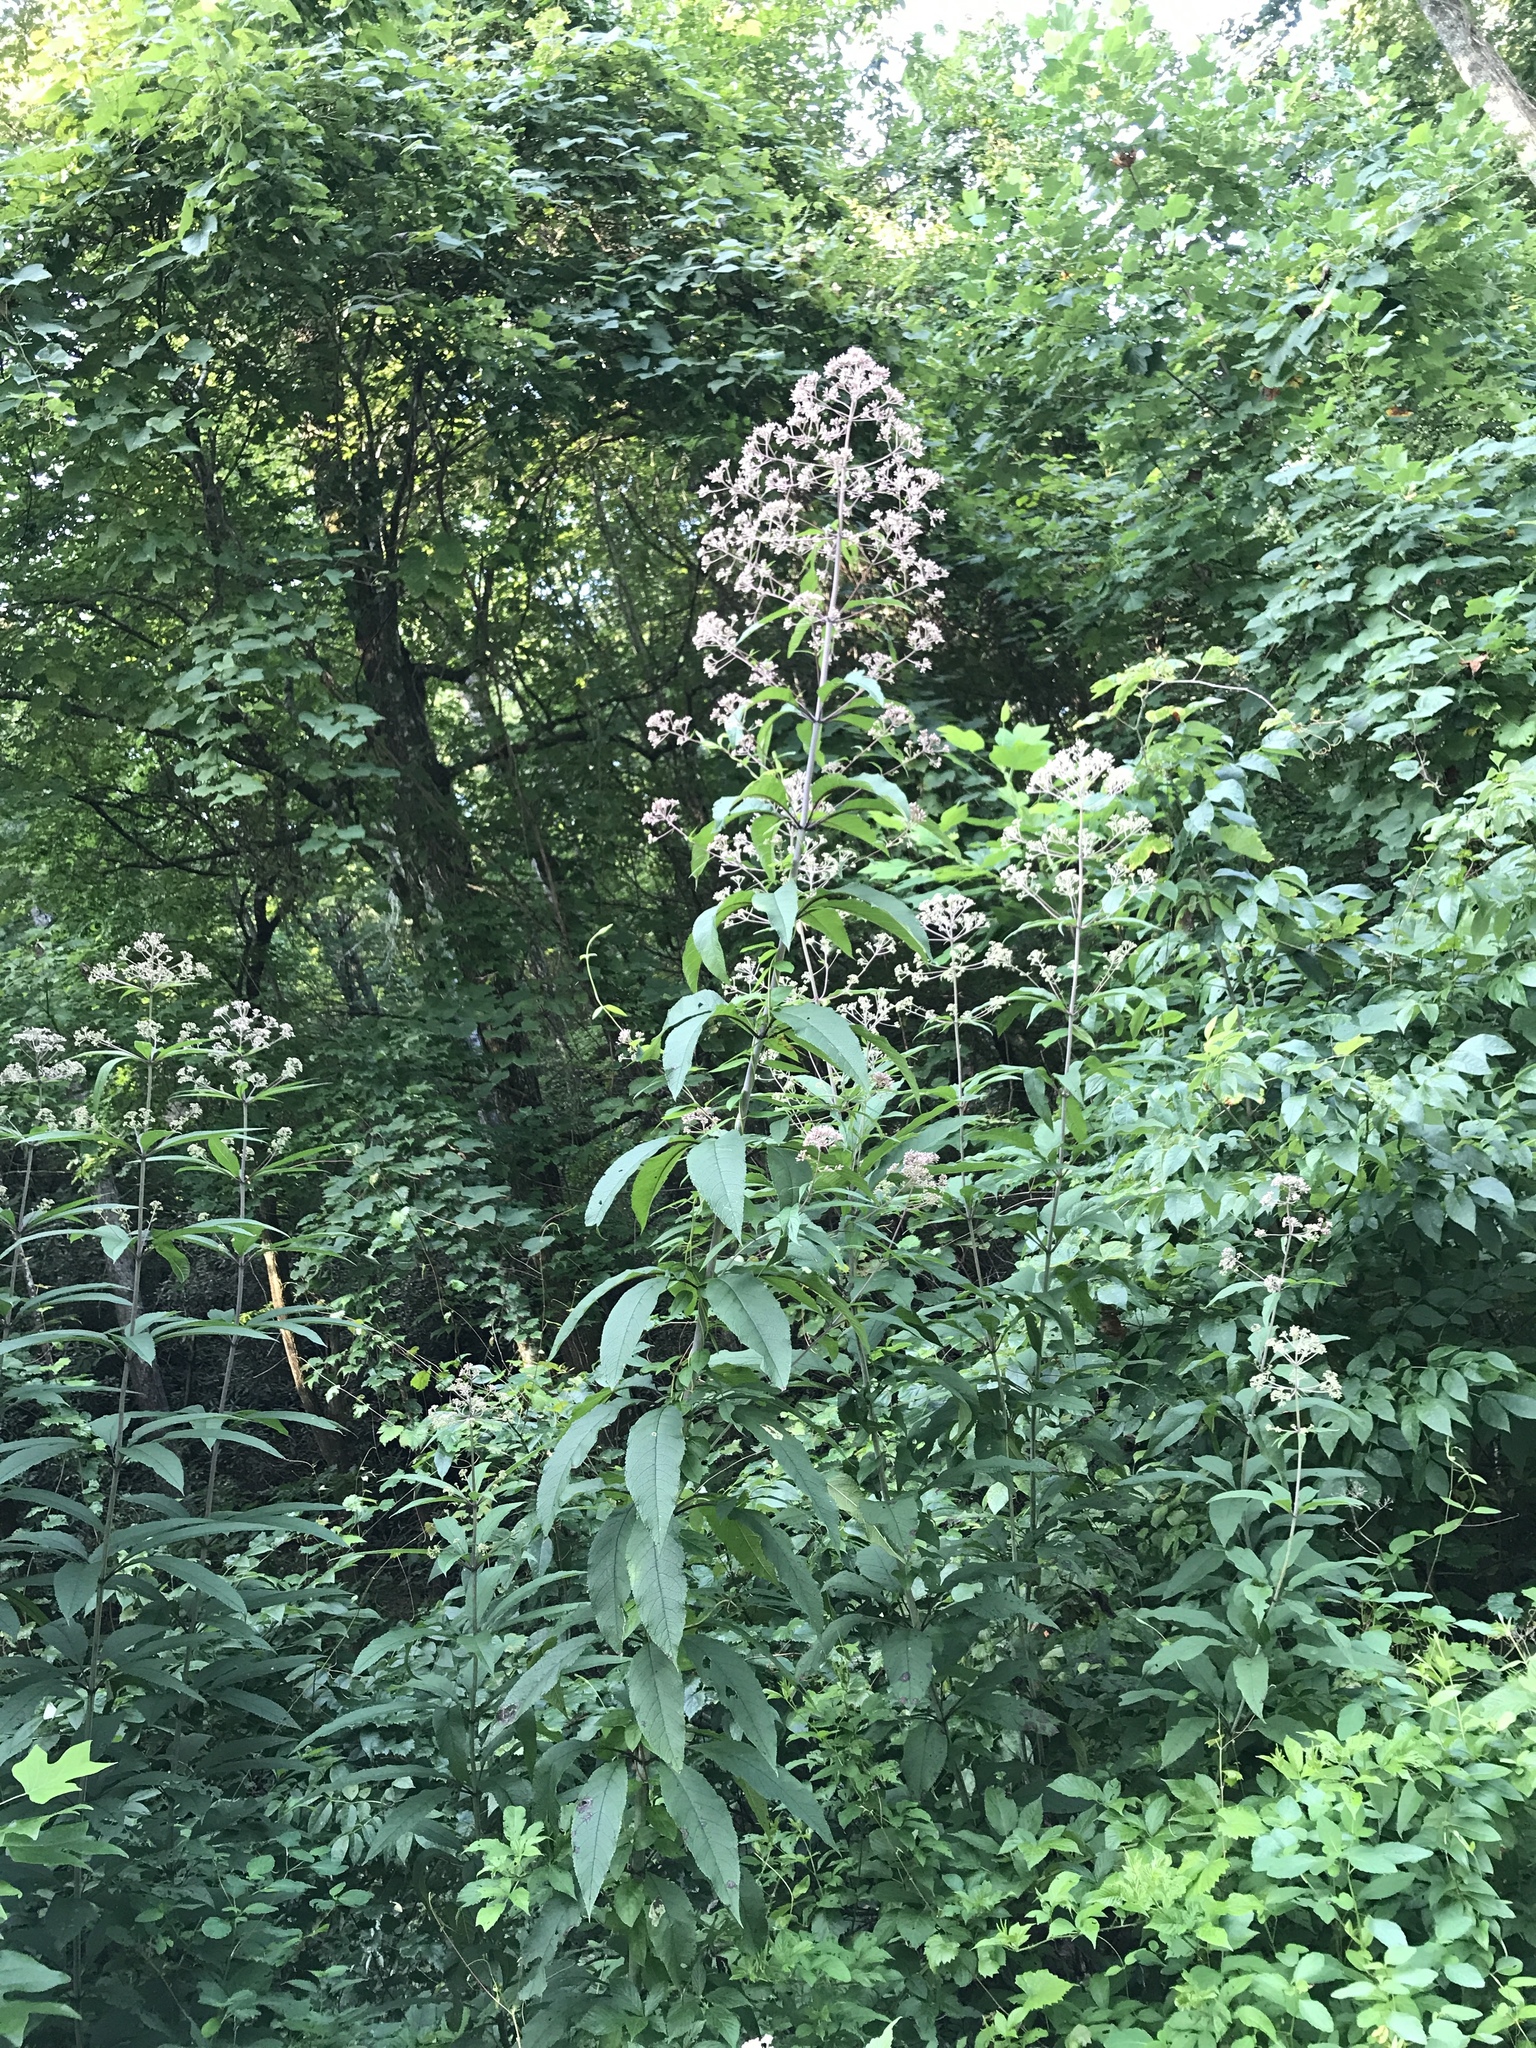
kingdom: Plantae
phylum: Tracheophyta
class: Magnoliopsida
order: Asterales
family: Asteraceae
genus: Eutrochium
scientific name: Eutrochium fistulosum
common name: Trumpetweed
